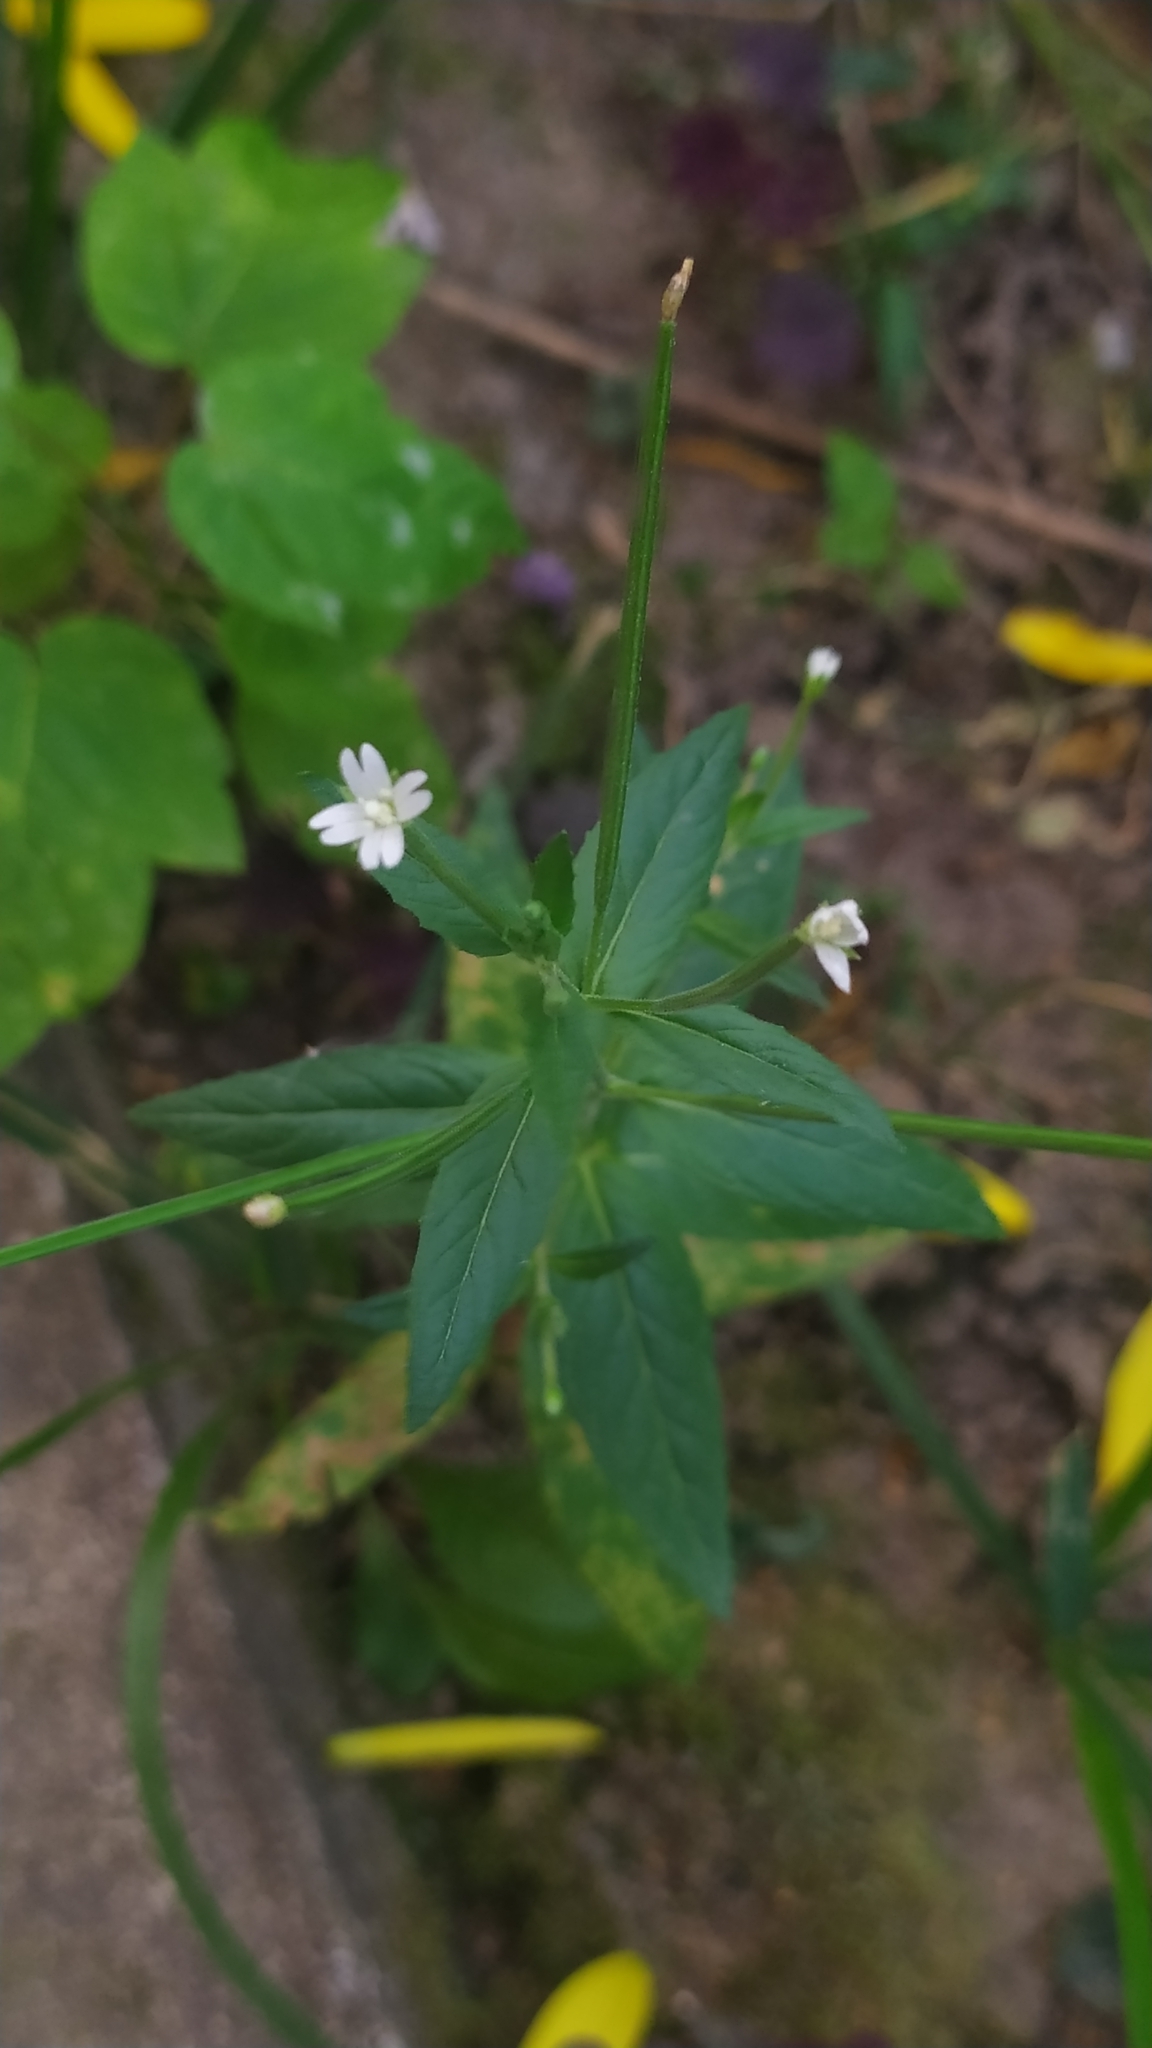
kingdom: Plantae
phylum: Tracheophyta
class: Magnoliopsida
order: Myrtales
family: Onagraceae
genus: Epilobium
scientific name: Epilobium pseudorubescens
